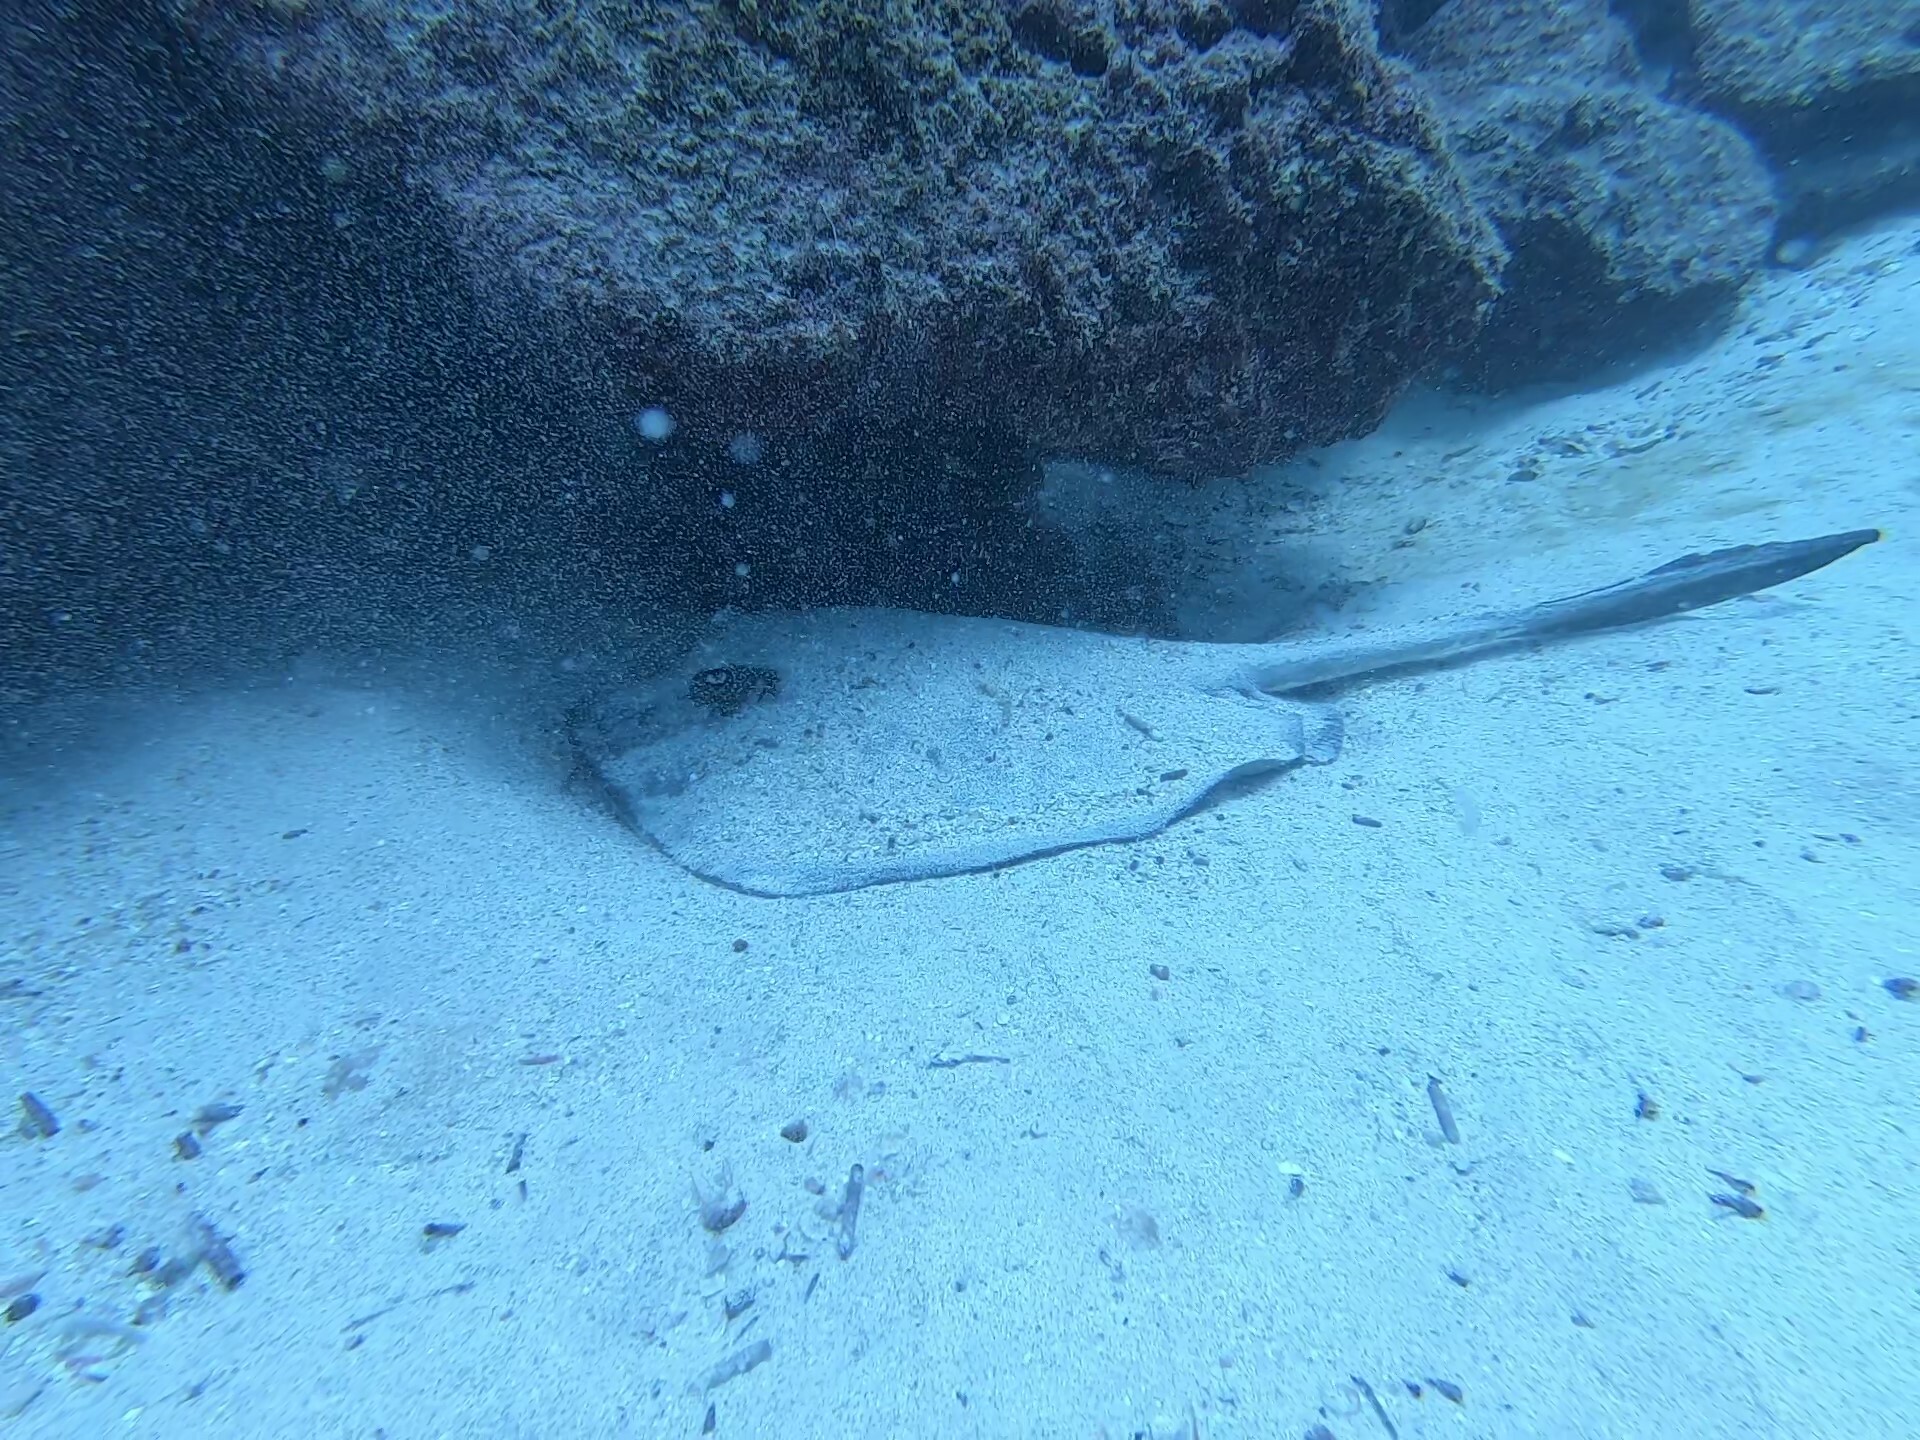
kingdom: Animalia
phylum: Chordata
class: Elasmobranchii
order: Myliobatiformes
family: Dasyatidae
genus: Hypanus
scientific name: Hypanus dipterurus
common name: Diamond stingray
